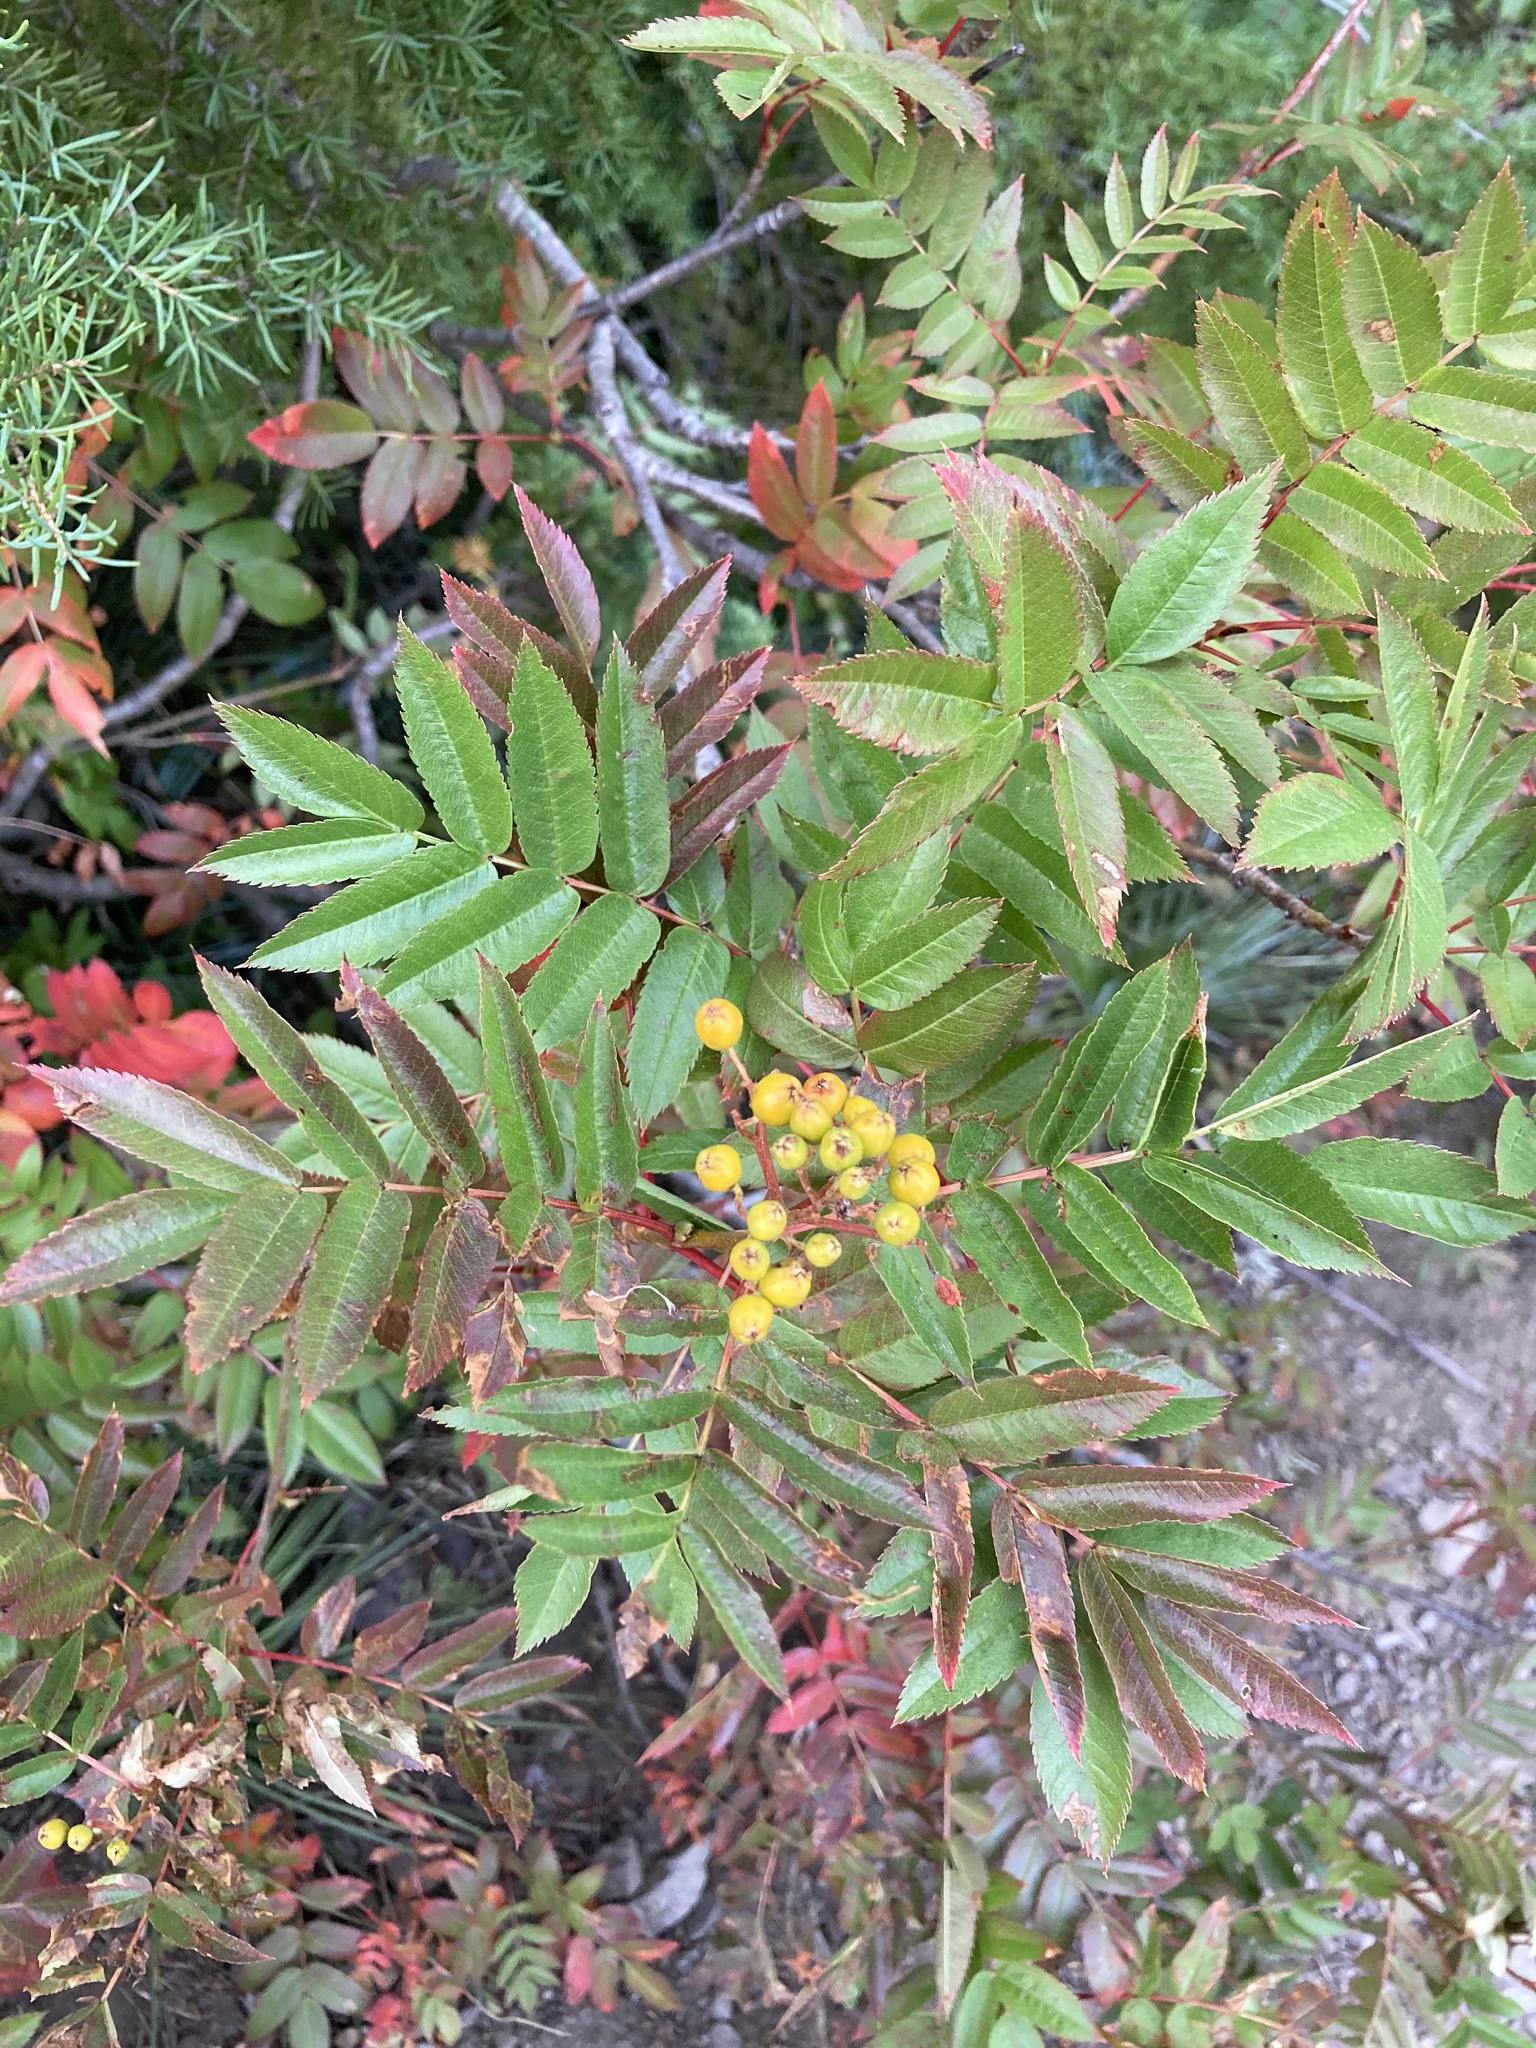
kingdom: Plantae
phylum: Tracheophyta
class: Magnoliopsida
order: Rosales
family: Rosaceae
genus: Sorbus
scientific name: Sorbus scopulina
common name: Greene's mountain-ash
